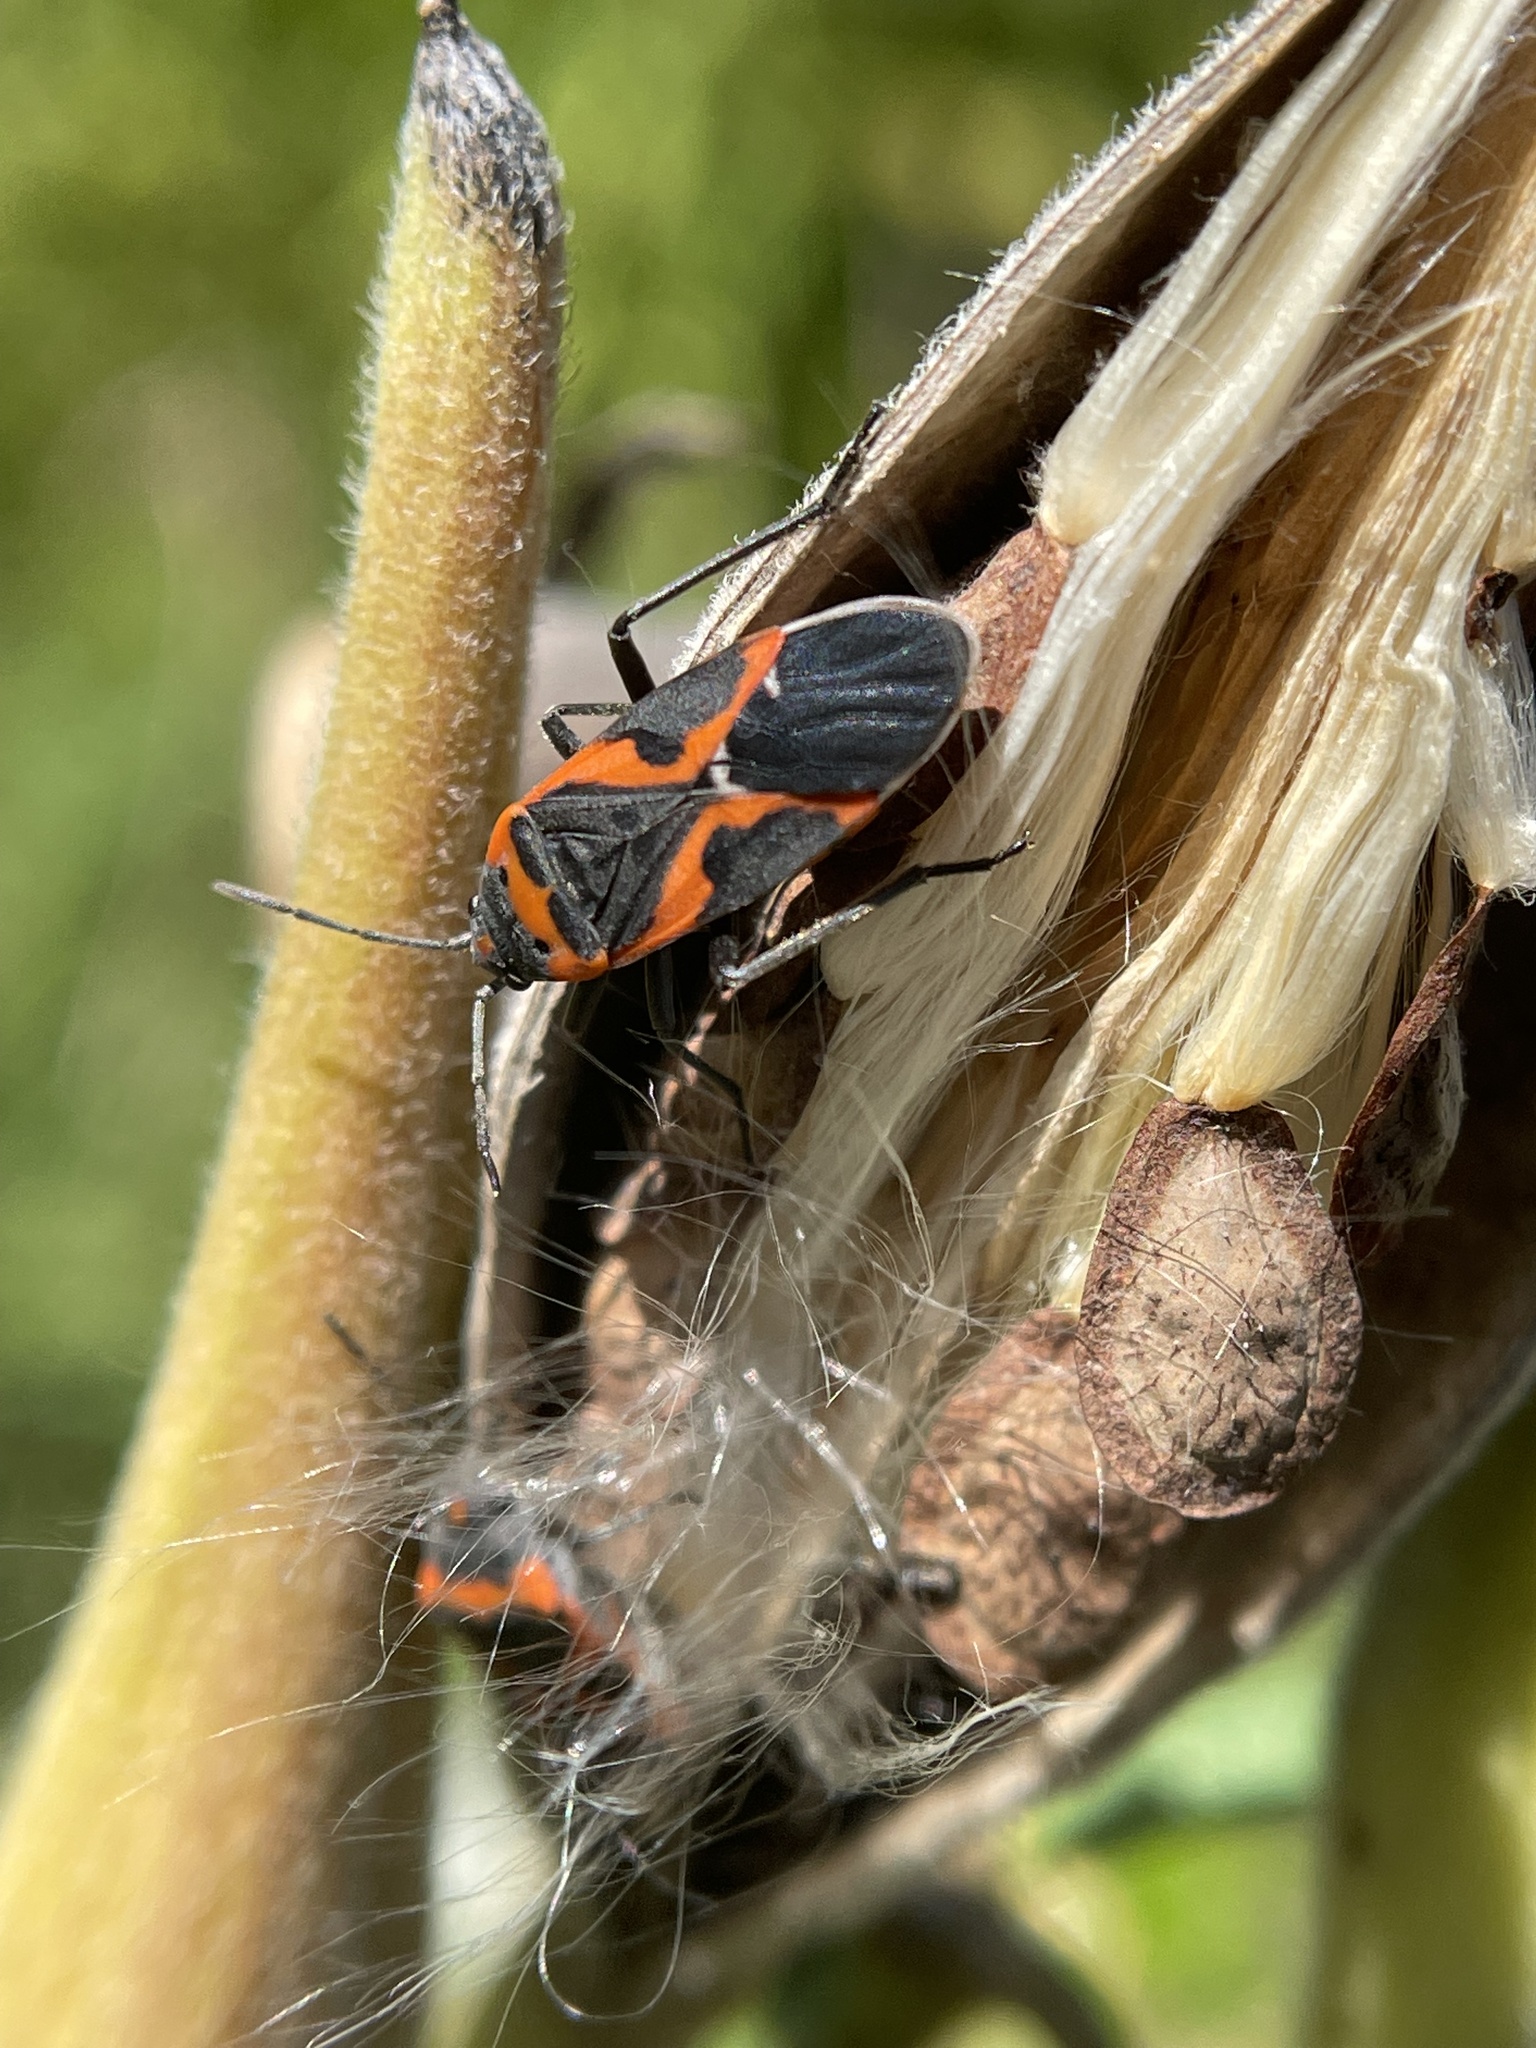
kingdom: Animalia
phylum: Arthropoda
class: Insecta
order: Hemiptera
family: Lygaeidae
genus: Lygaeus
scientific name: Lygaeus kalmii
